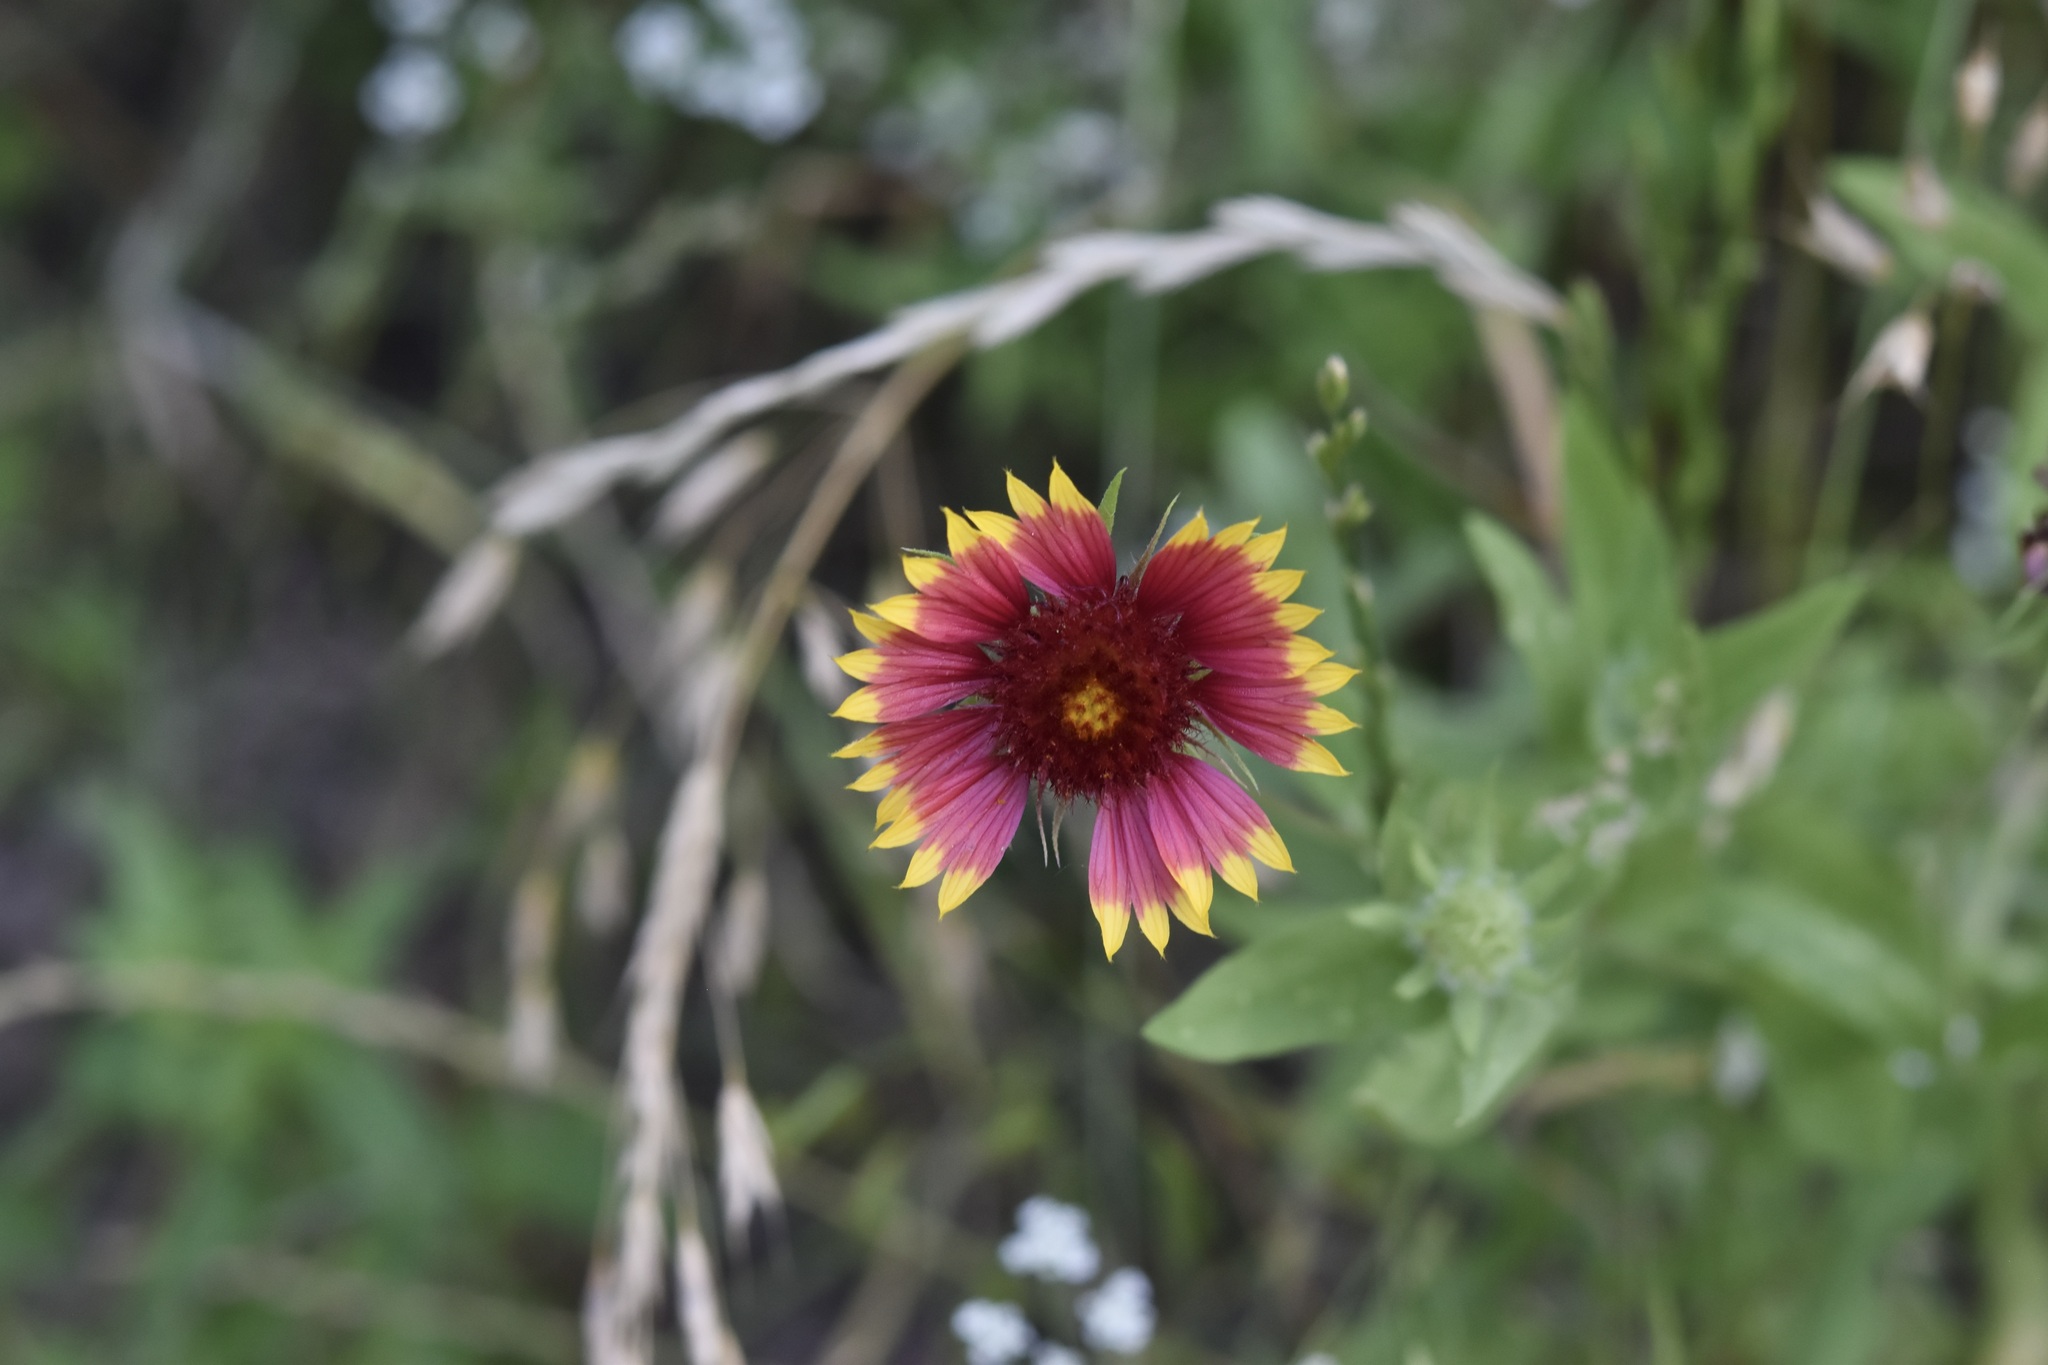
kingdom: Plantae
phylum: Tracheophyta
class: Magnoliopsida
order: Asterales
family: Asteraceae
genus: Gaillardia
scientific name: Gaillardia pulchella
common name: Firewheel
